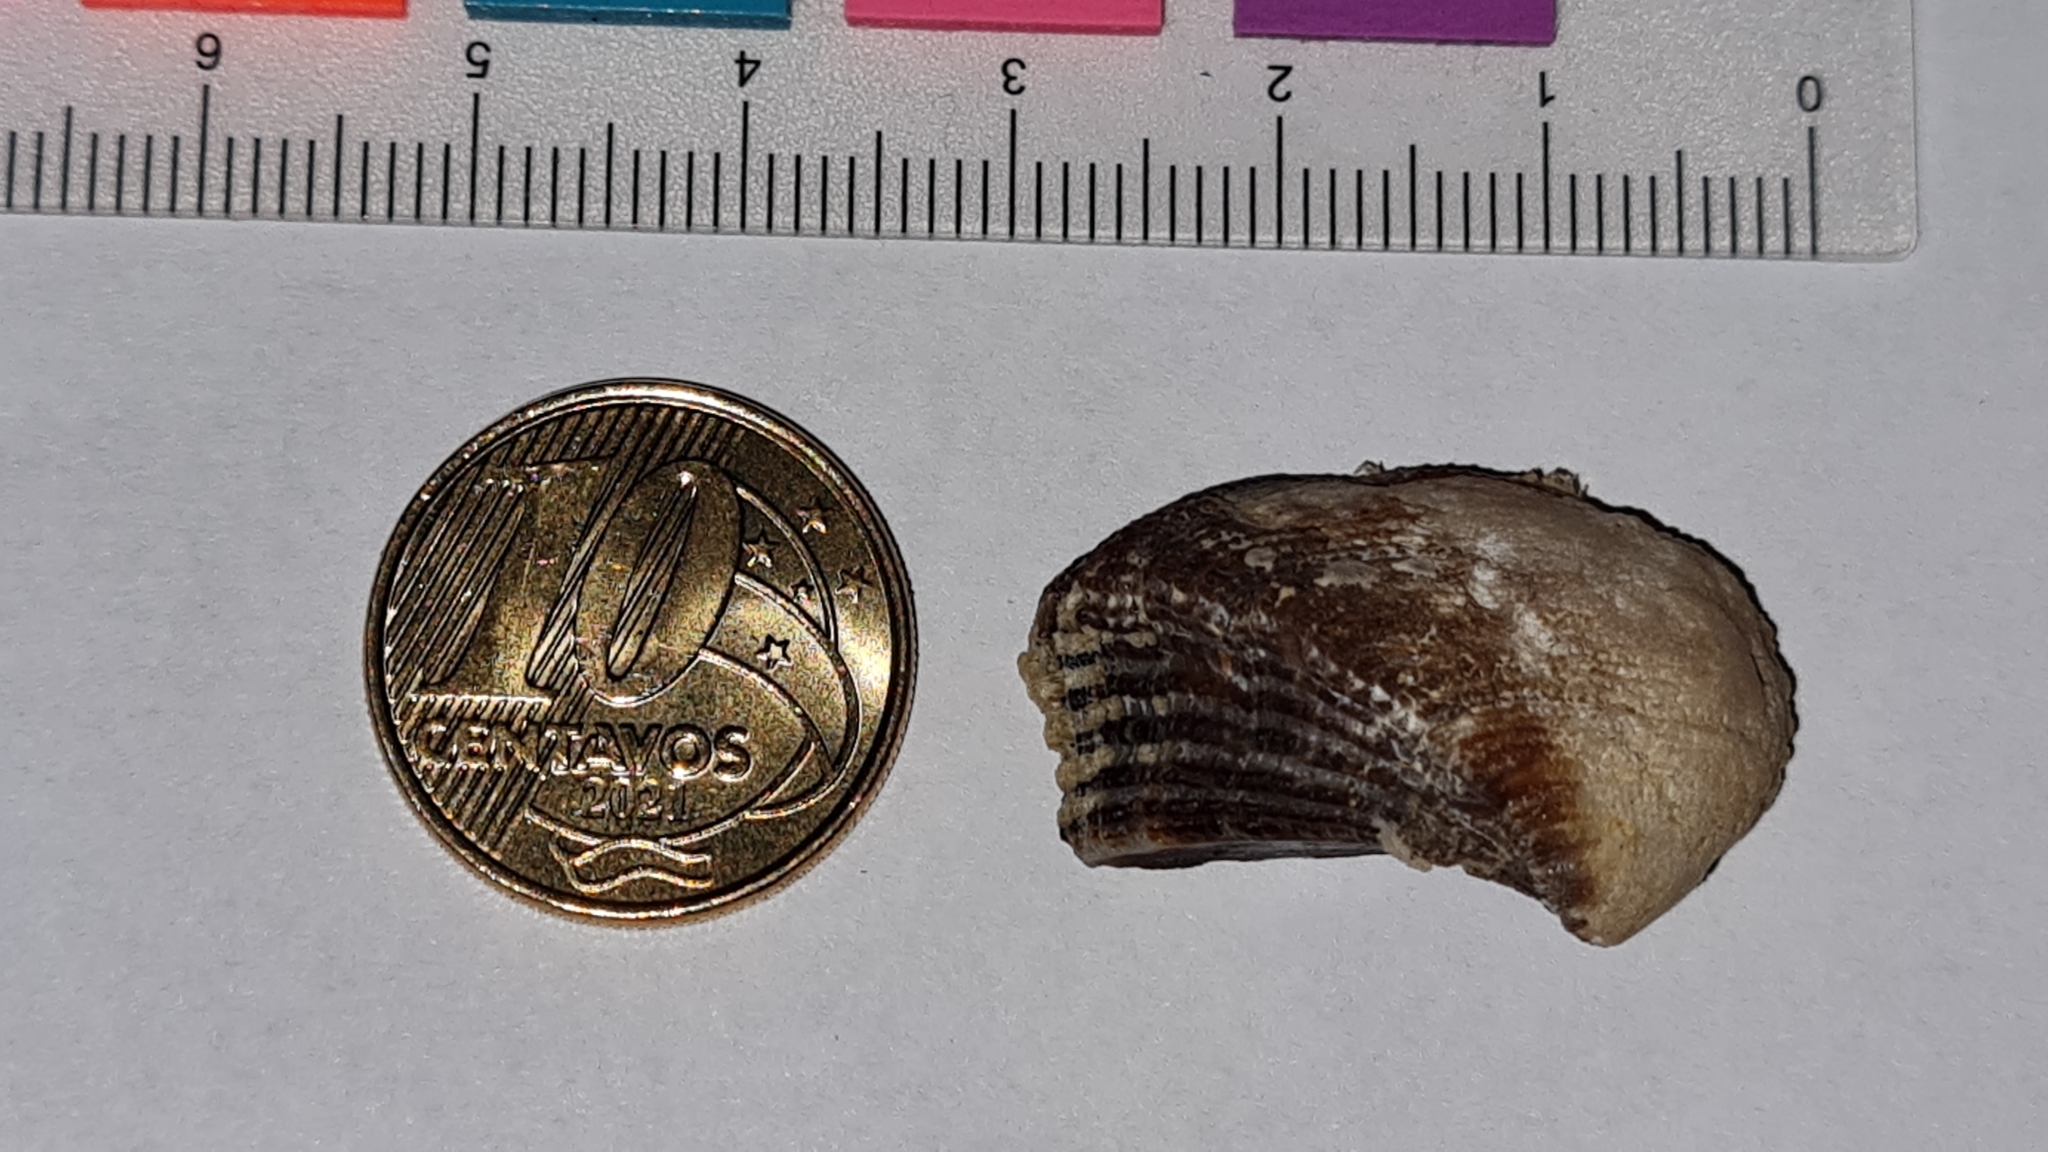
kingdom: Animalia
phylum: Mollusca
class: Bivalvia
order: Arcida
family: Arcidae
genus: Lamarcka
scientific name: Lamarcka imbricata
